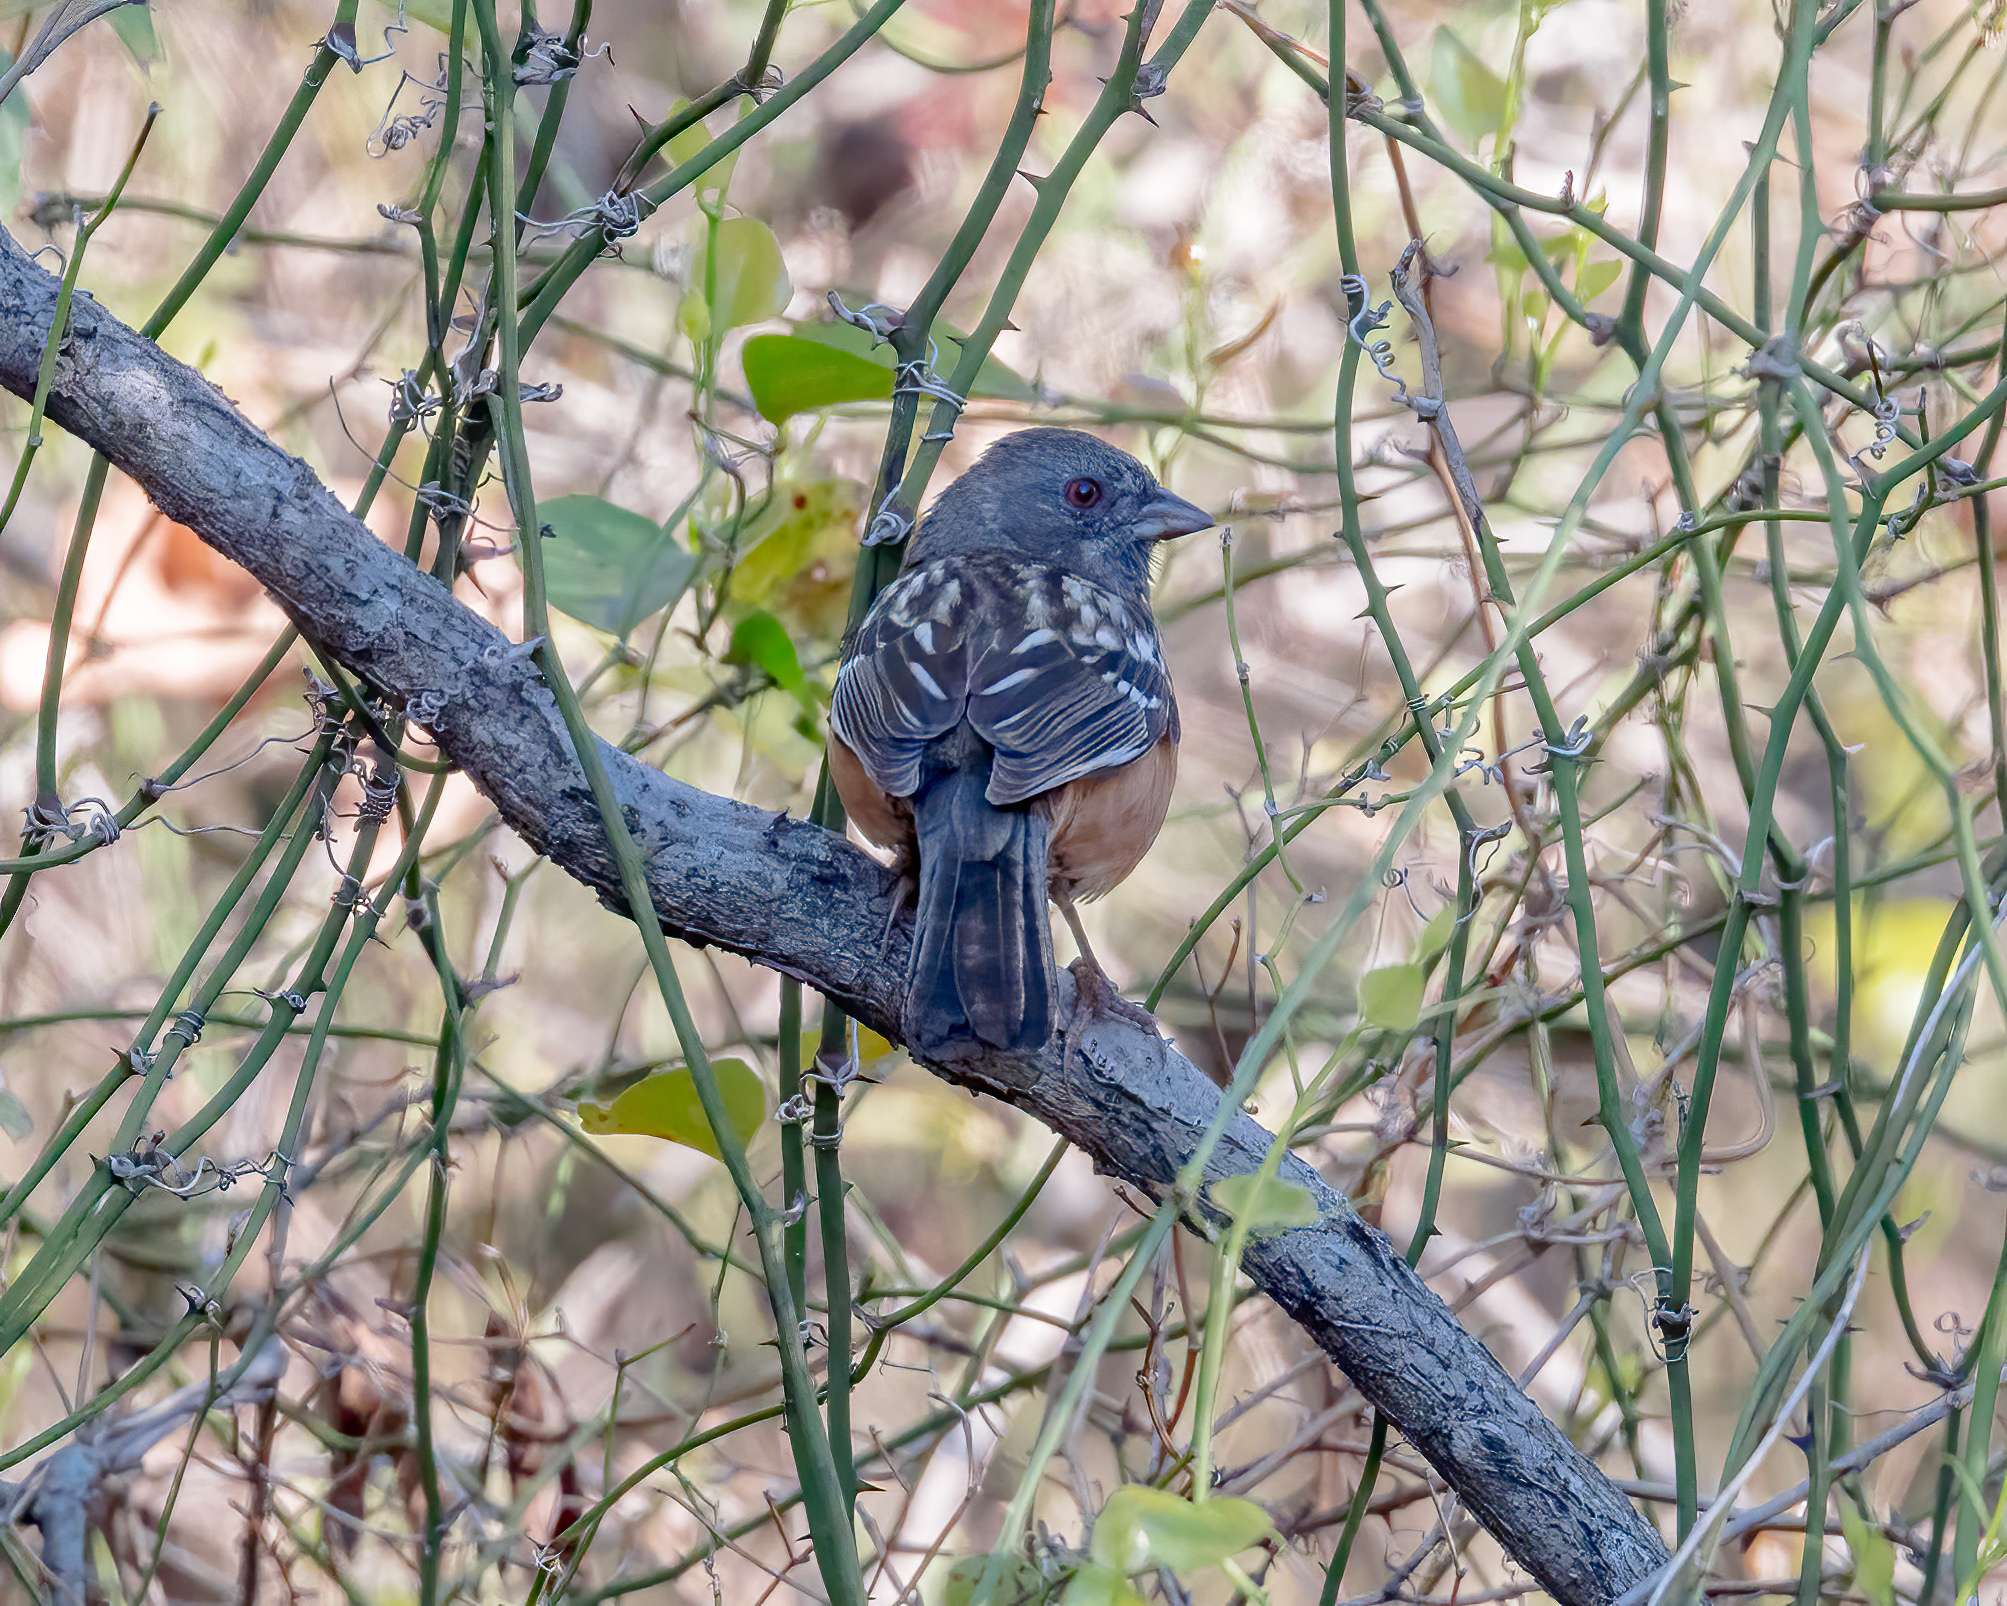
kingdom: Animalia
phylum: Chordata
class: Aves
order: Passeriformes
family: Passerellidae
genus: Pipilo
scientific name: Pipilo maculatus
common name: Spotted towhee
